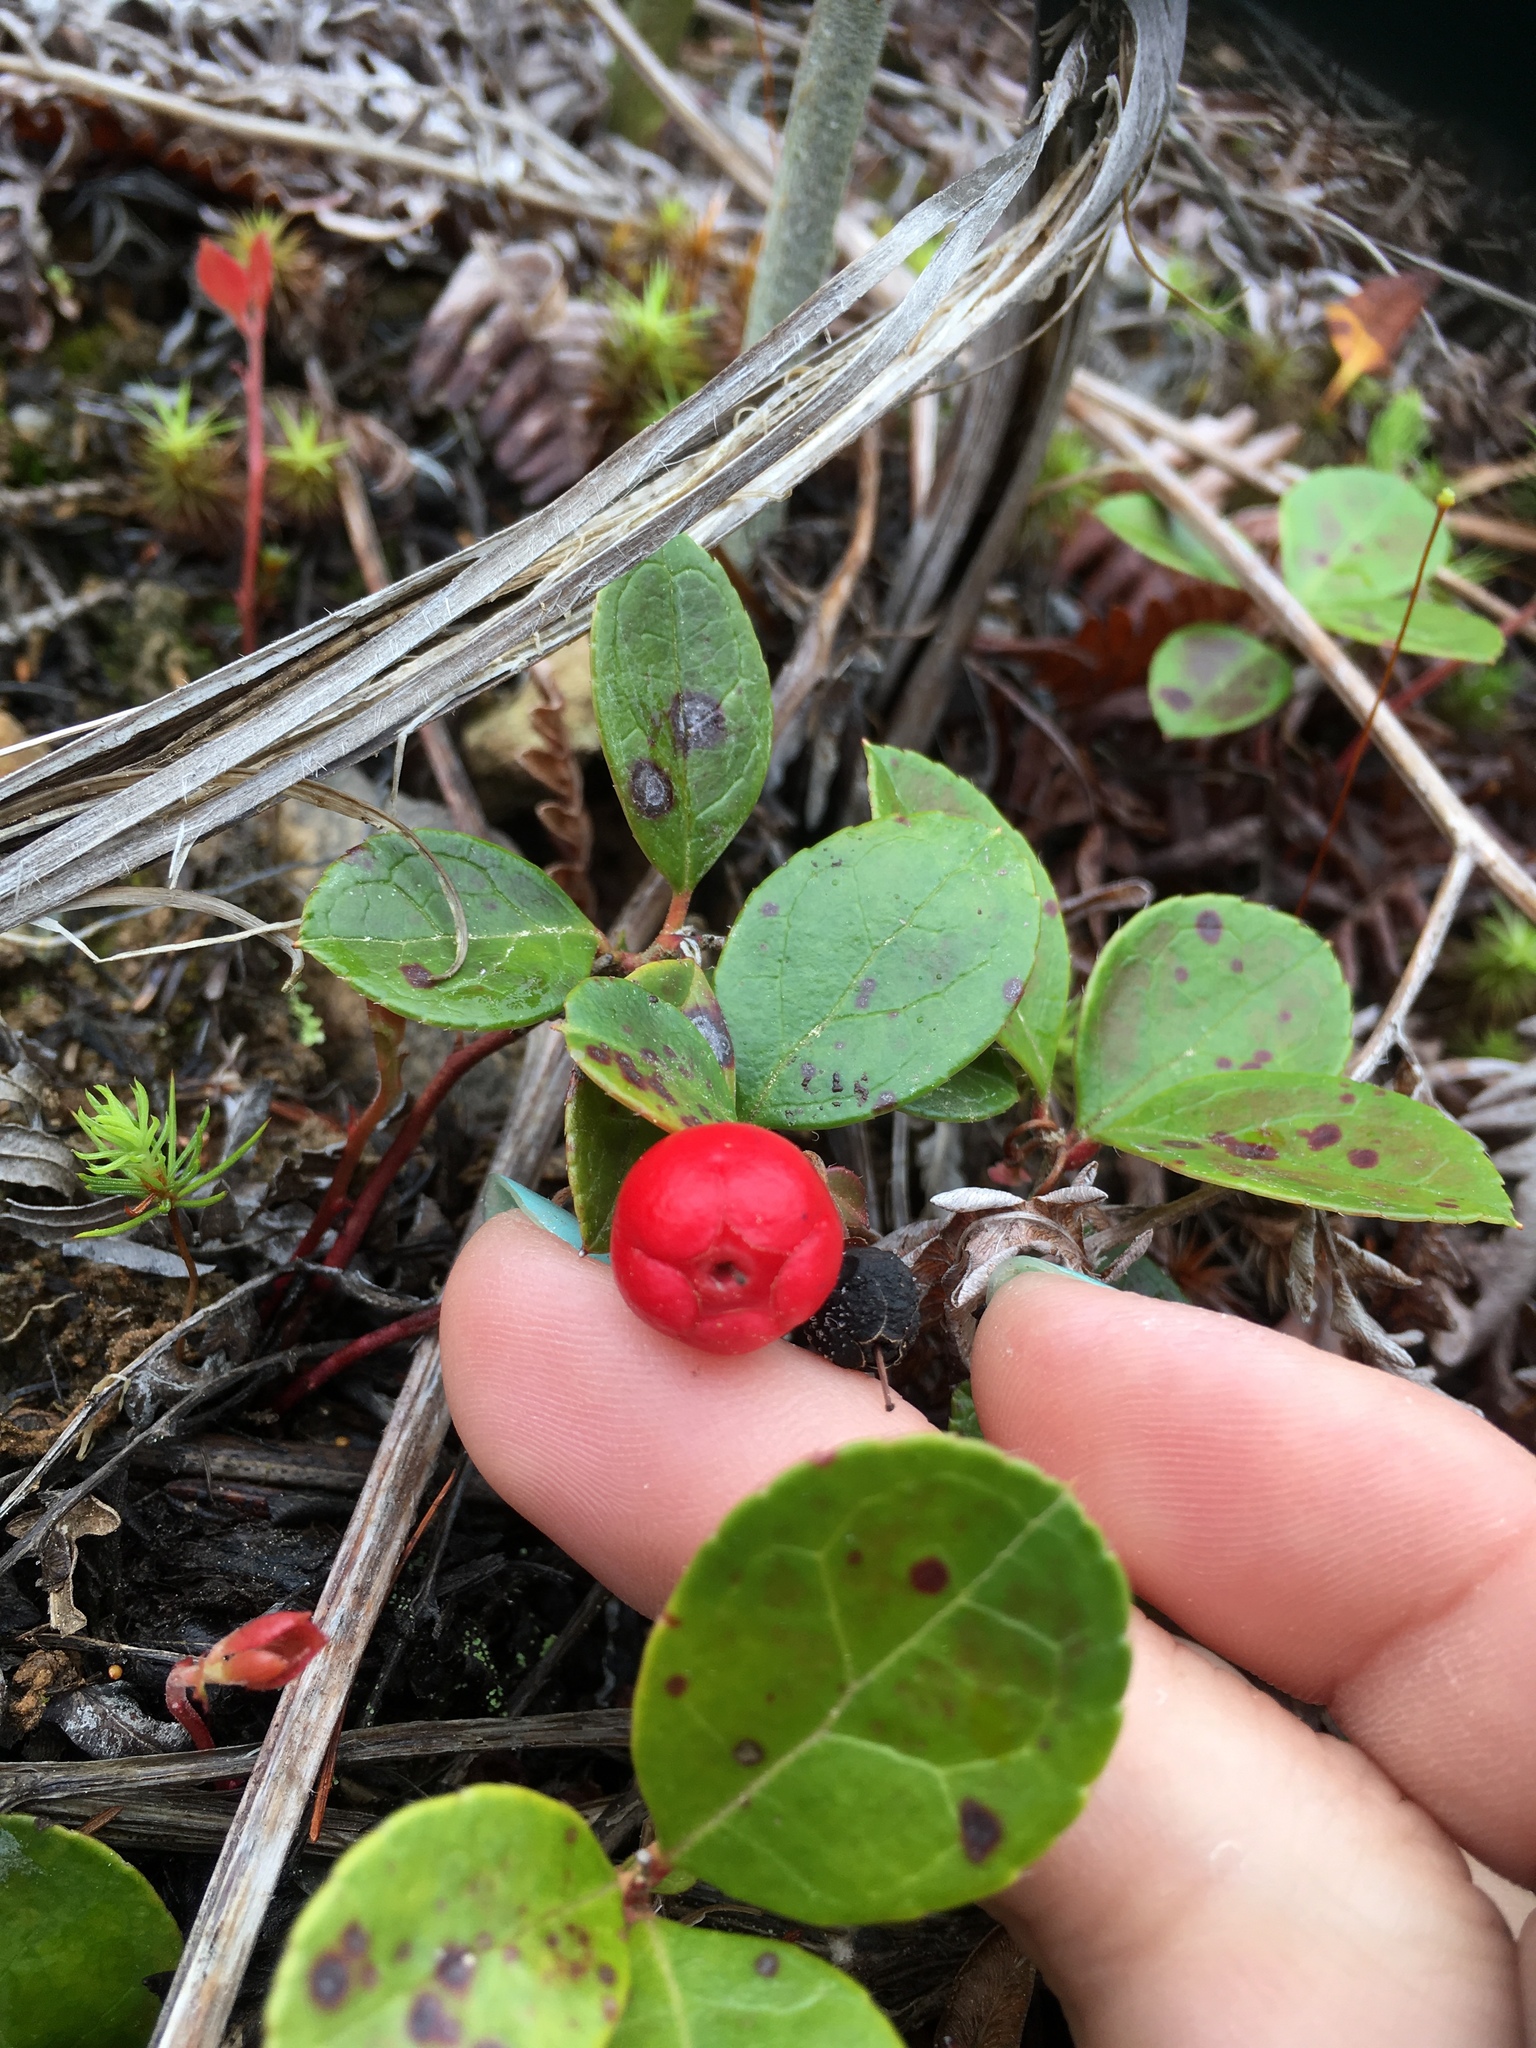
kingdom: Plantae
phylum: Tracheophyta
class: Magnoliopsida
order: Ericales
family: Ericaceae
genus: Gaultheria
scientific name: Gaultheria procumbens
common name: Checkerberry
